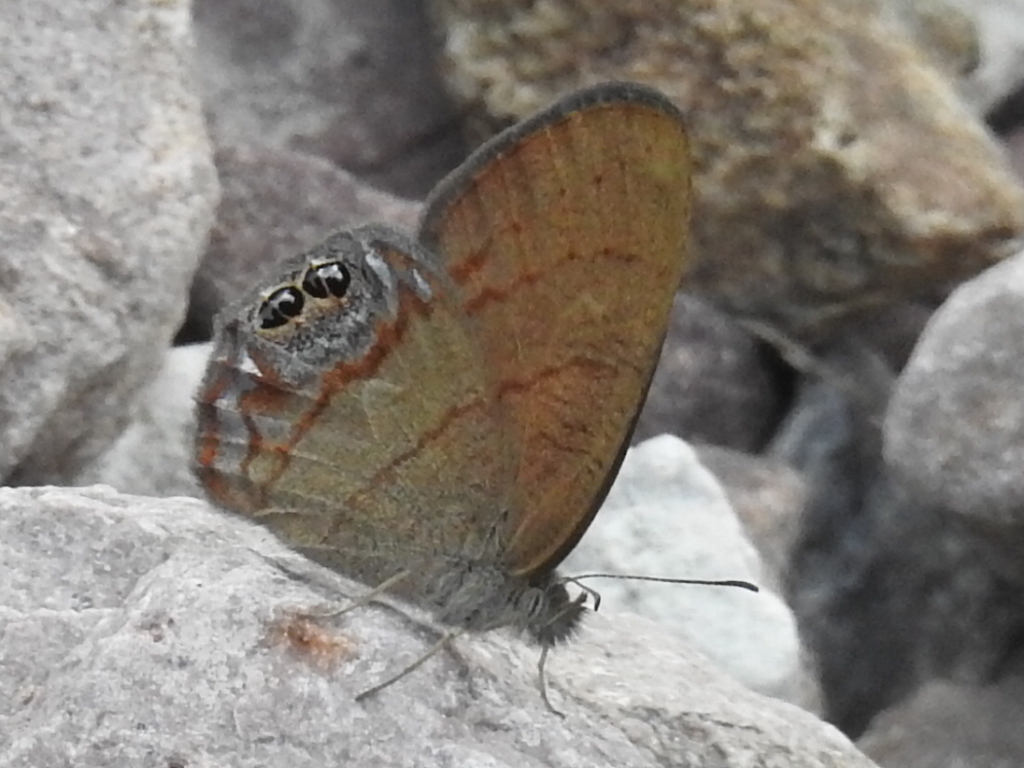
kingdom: Animalia
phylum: Arthropoda
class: Insecta
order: Lepidoptera
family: Nymphalidae
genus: Euptychia
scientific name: Euptychia pyracmon
